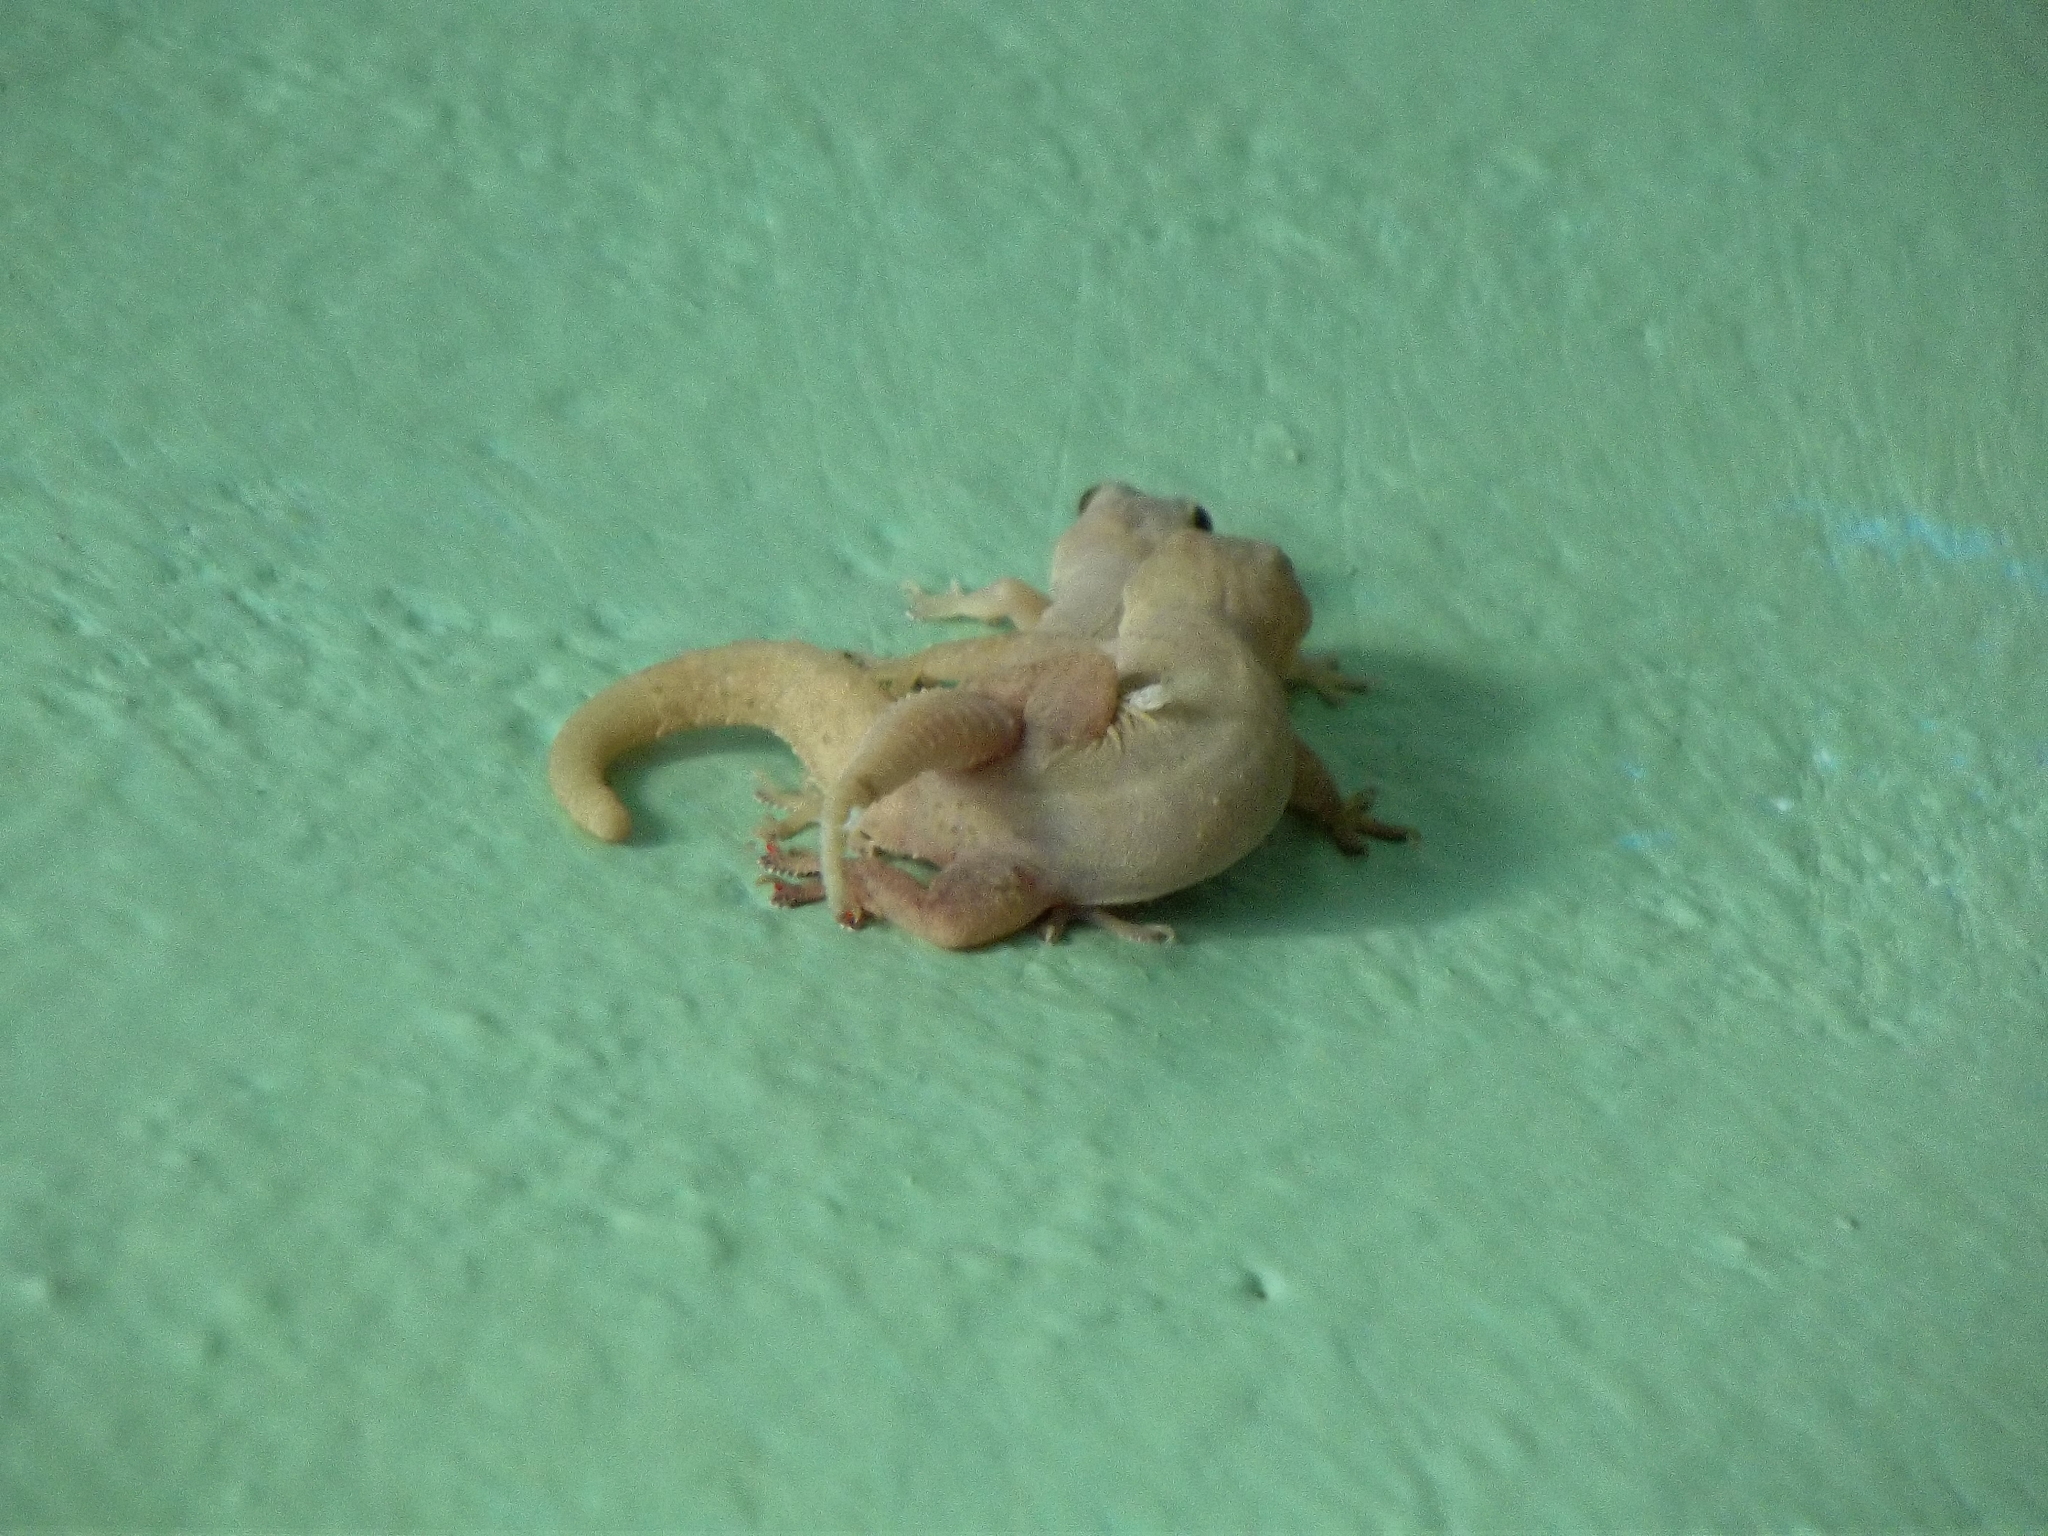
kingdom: Animalia
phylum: Chordata
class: Squamata
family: Gekkonidae
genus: Hemidactylus
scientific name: Hemidactylus frenatus
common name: Common house gecko
